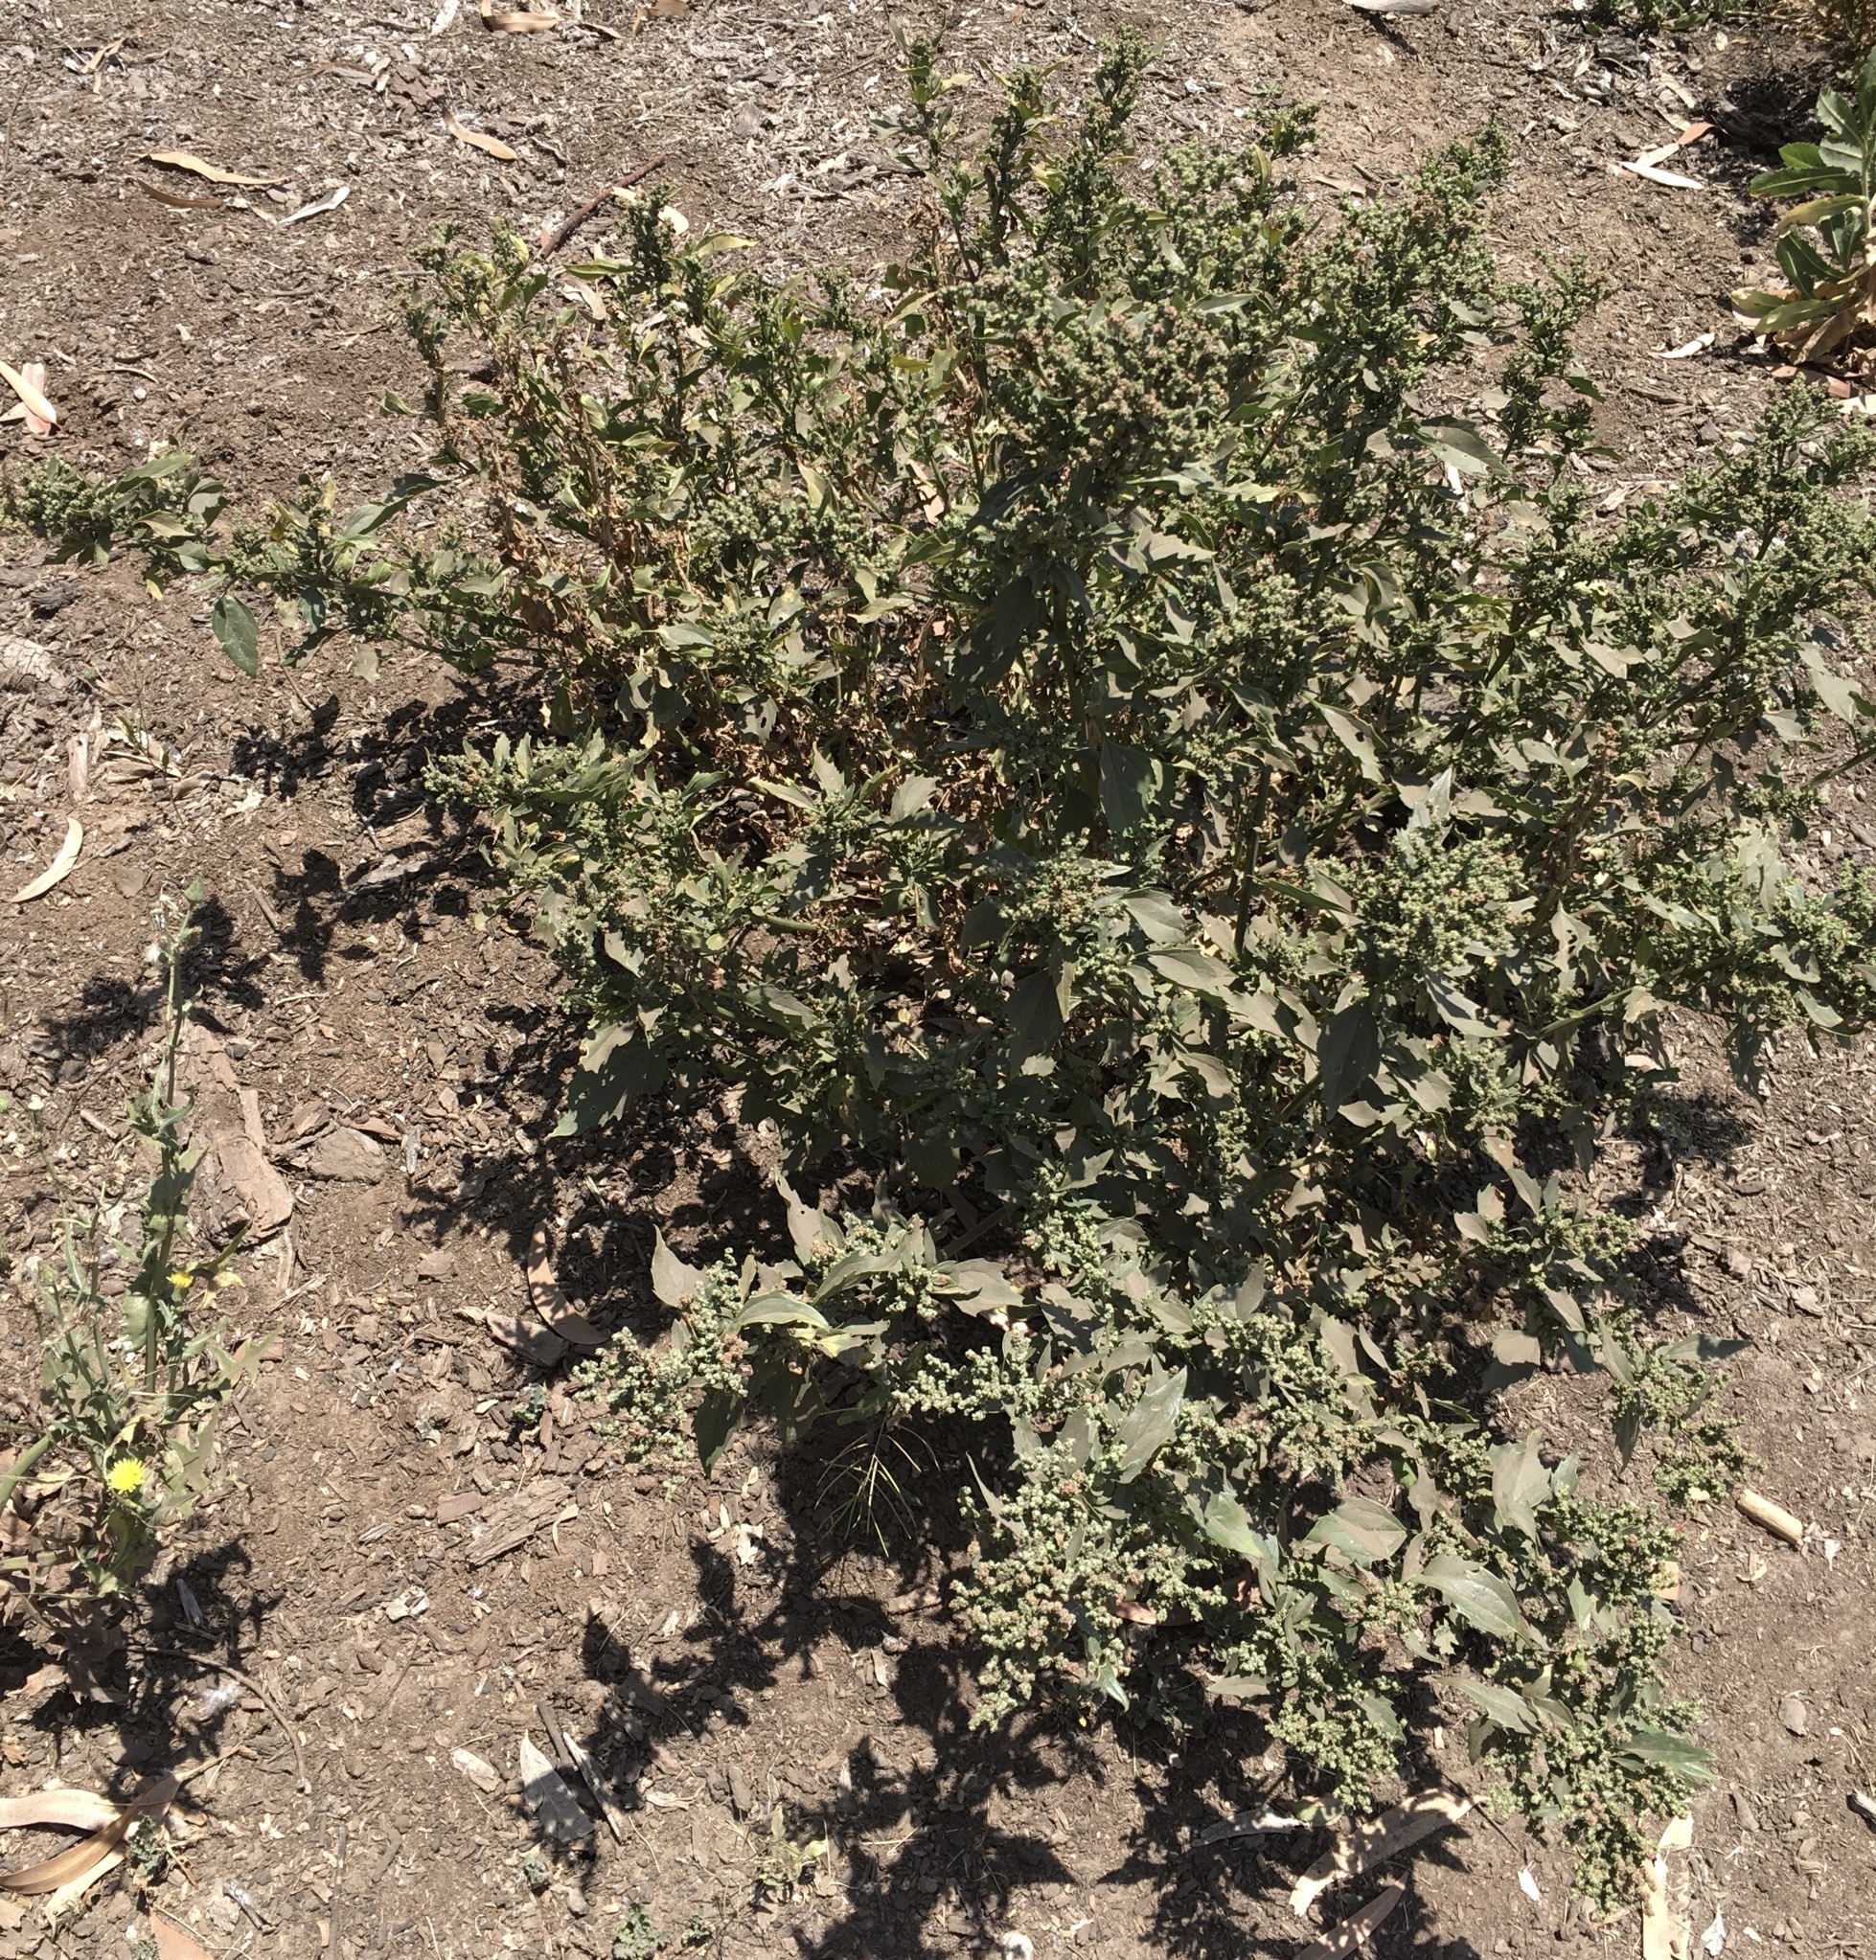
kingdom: Plantae
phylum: Tracheophyta
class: Magnoliopsida
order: Caryophyllales
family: Amaranthaceae
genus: Chenopodiastrum
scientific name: Chenopodiastrum murale
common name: Sowbane
